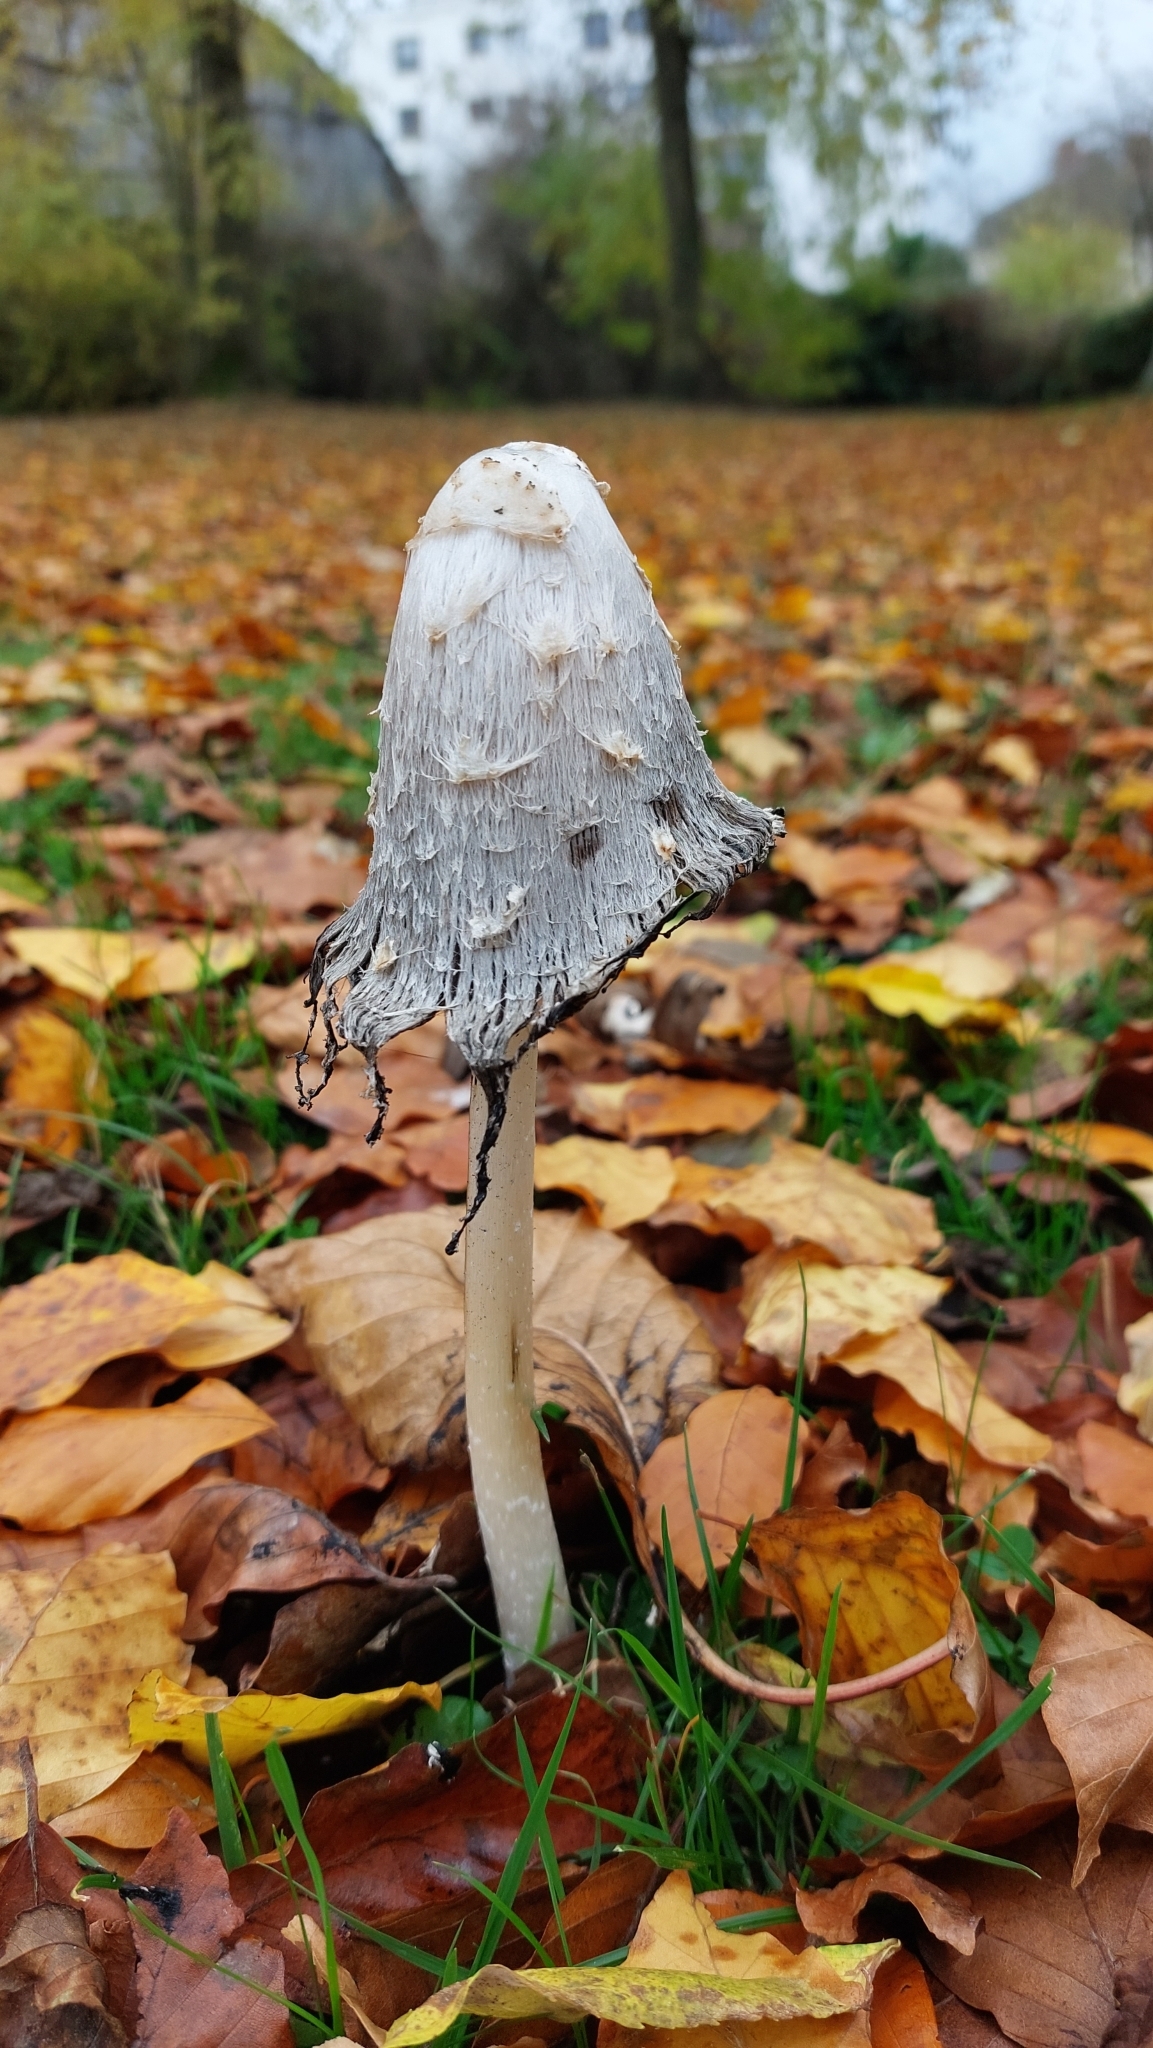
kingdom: Fungi
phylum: Basidiomycota
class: Agaricomycetes
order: Agaricales
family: Agaricaceae
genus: Coprinus
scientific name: Coprinus comatus
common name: Lawyer's wig
